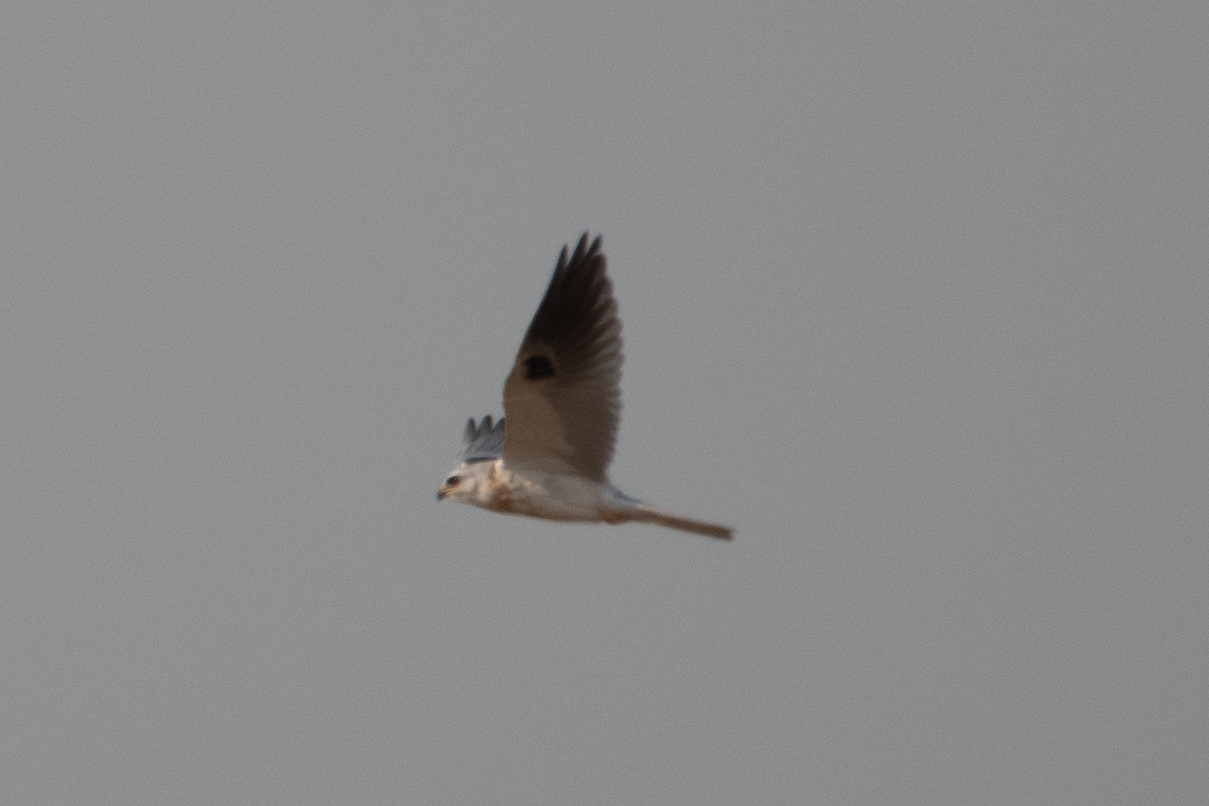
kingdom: Animalia
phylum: Chordata
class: Aves
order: Accipitriformes
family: Accipitridae
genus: Elanus
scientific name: Elanus leucurus
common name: White-tailed kite
